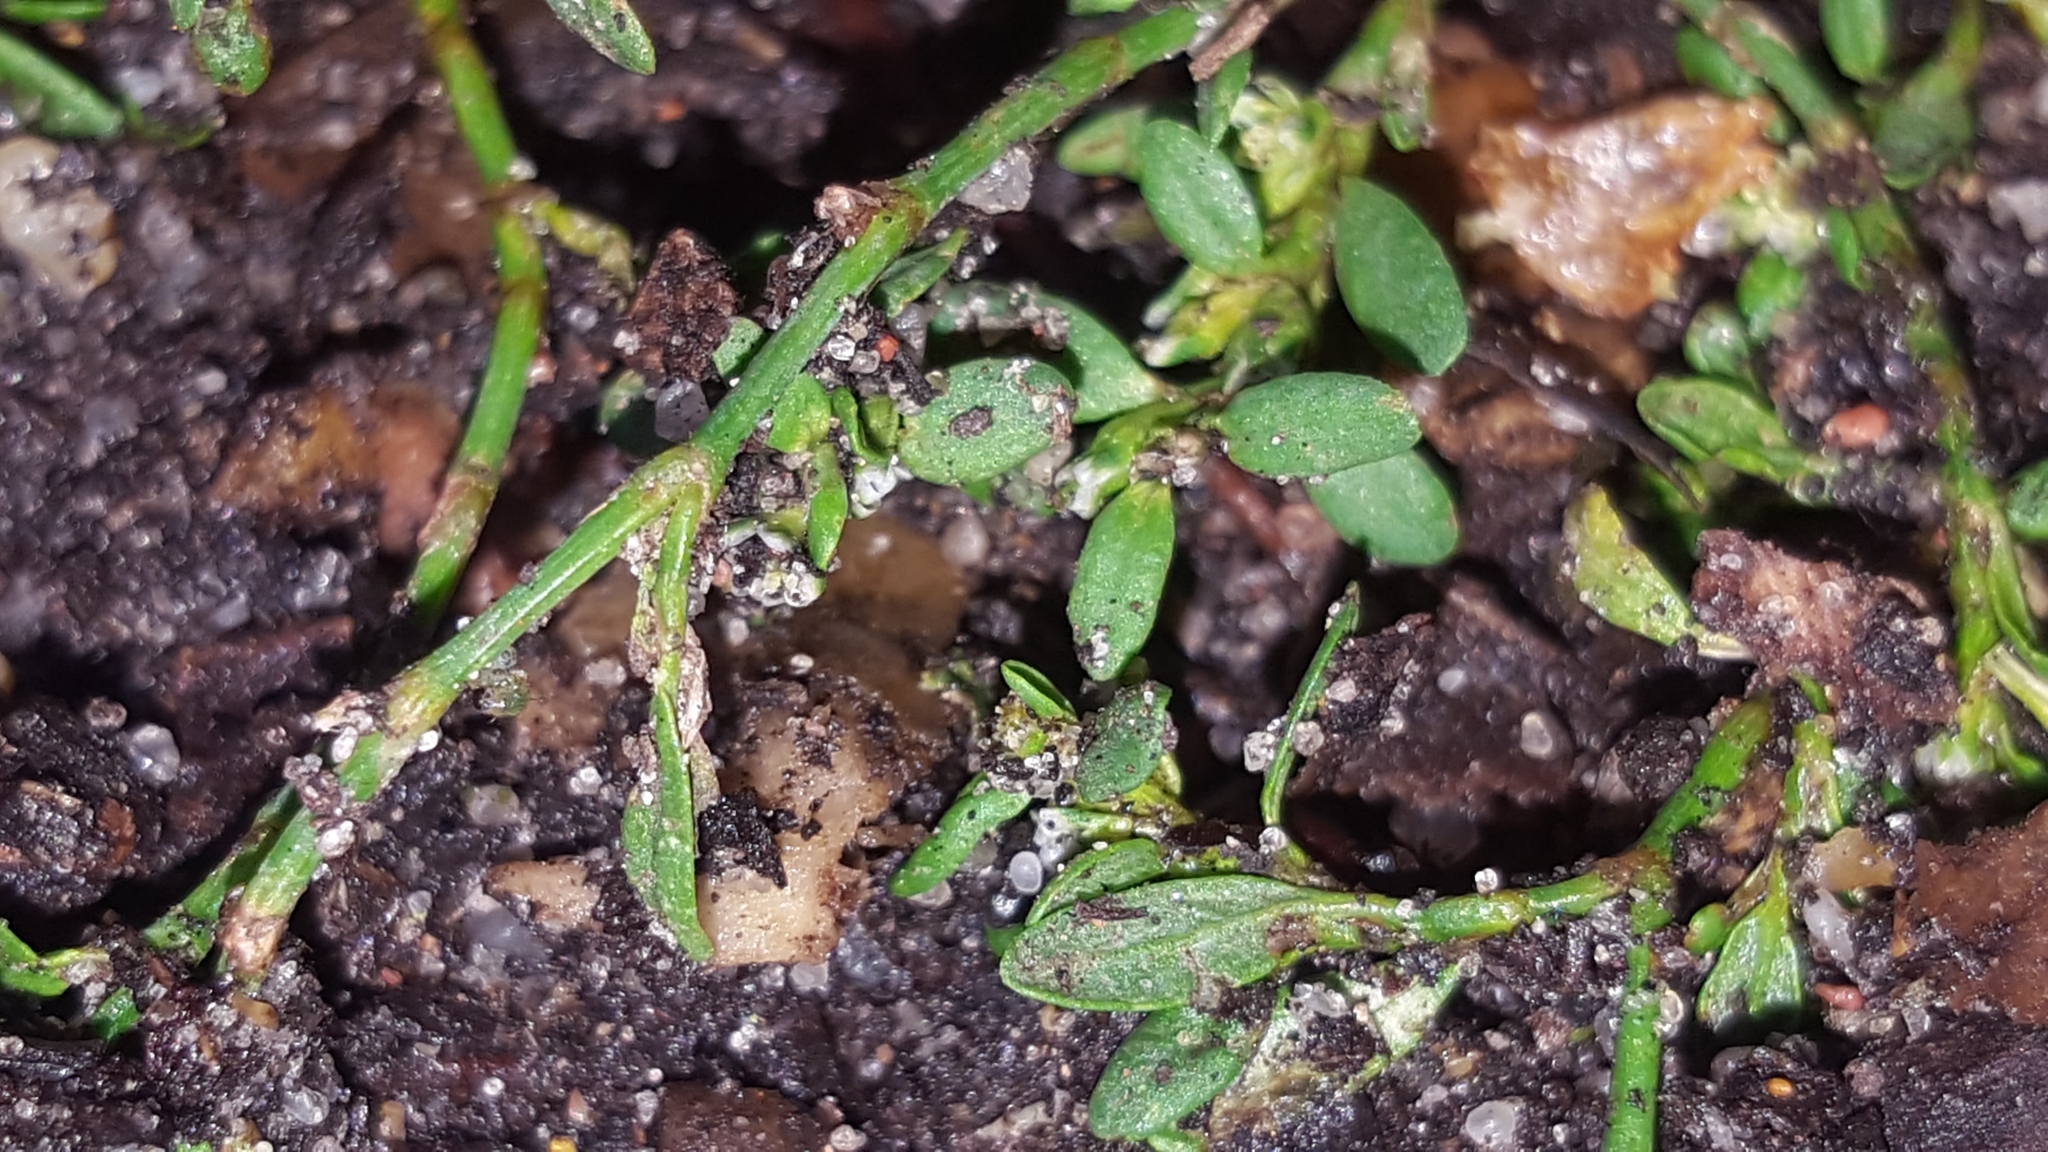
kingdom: Plantae
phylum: Tracheophyta
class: Magnoliopsida
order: Caryophyllales
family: Polygonaceae
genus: Polygonum
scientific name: Polygonum aviculare
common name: Prostrate knotweed
